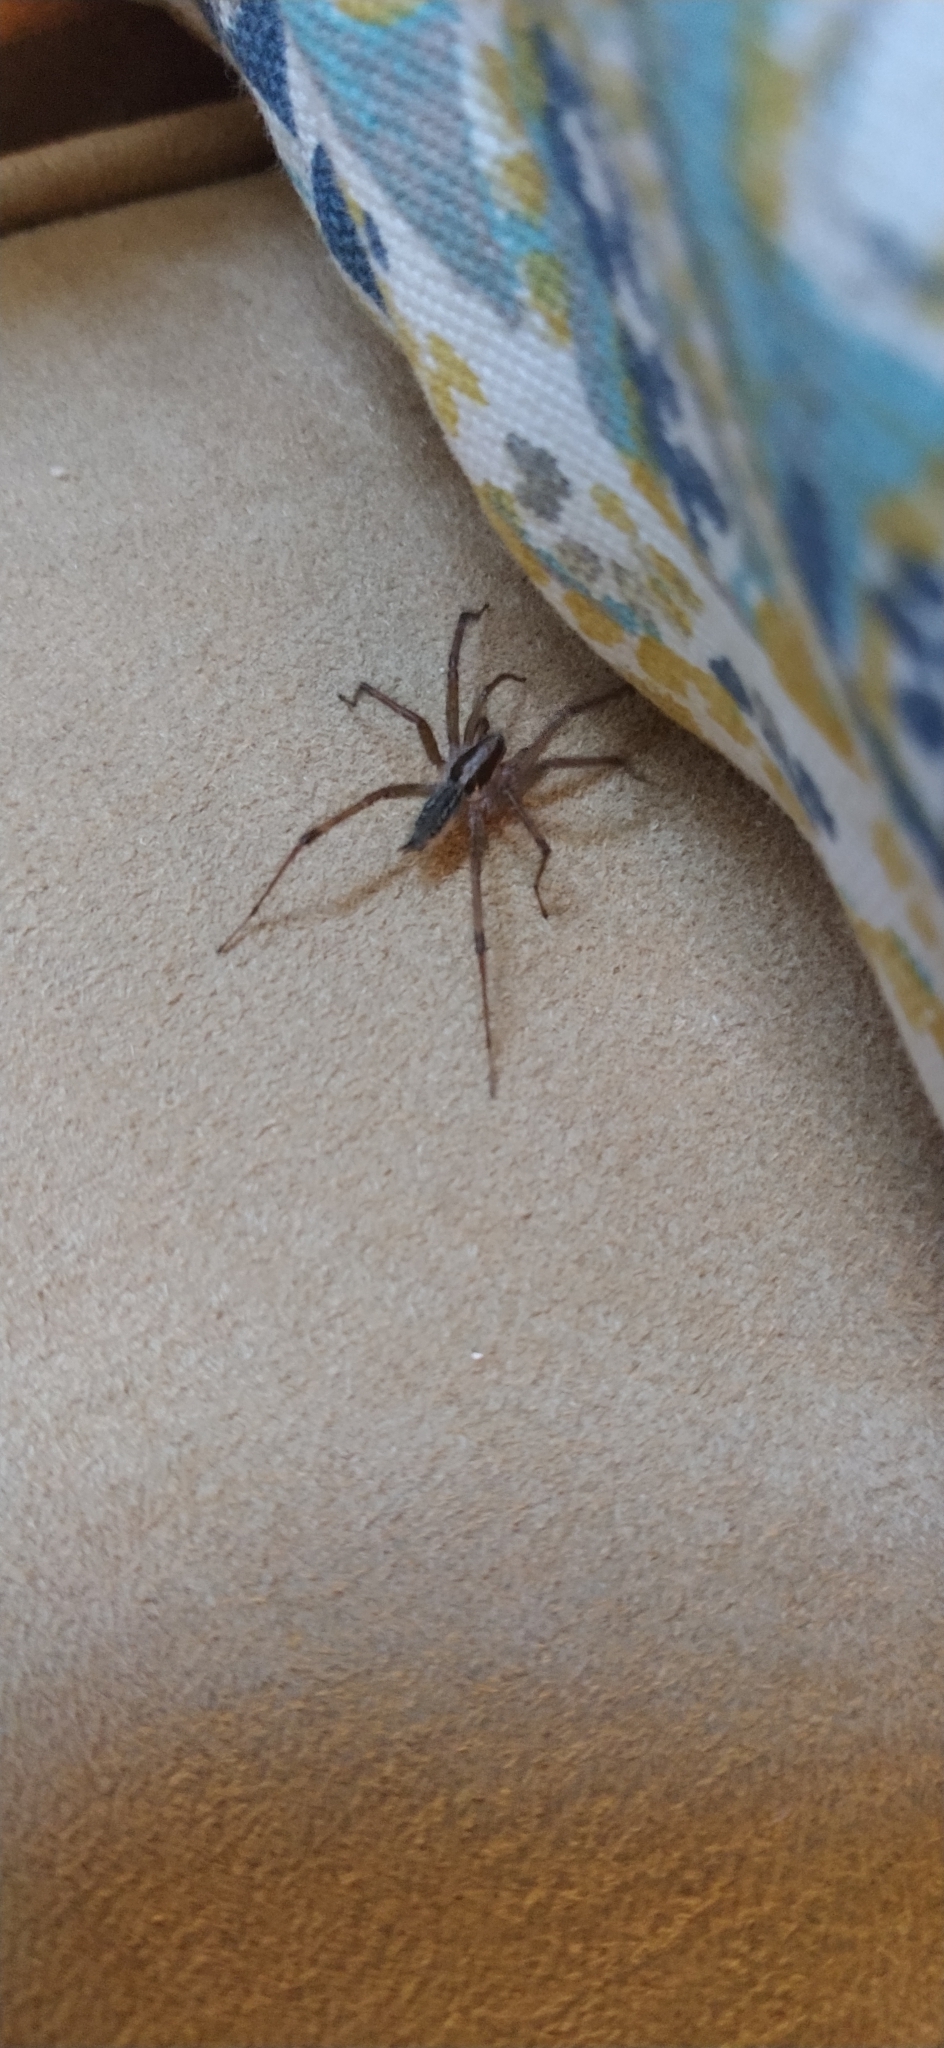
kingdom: Animalia
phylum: Arthropoda
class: Arachnida
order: Araneae
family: Agelenidae
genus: Agelenopsis
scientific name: Agelenopsis
